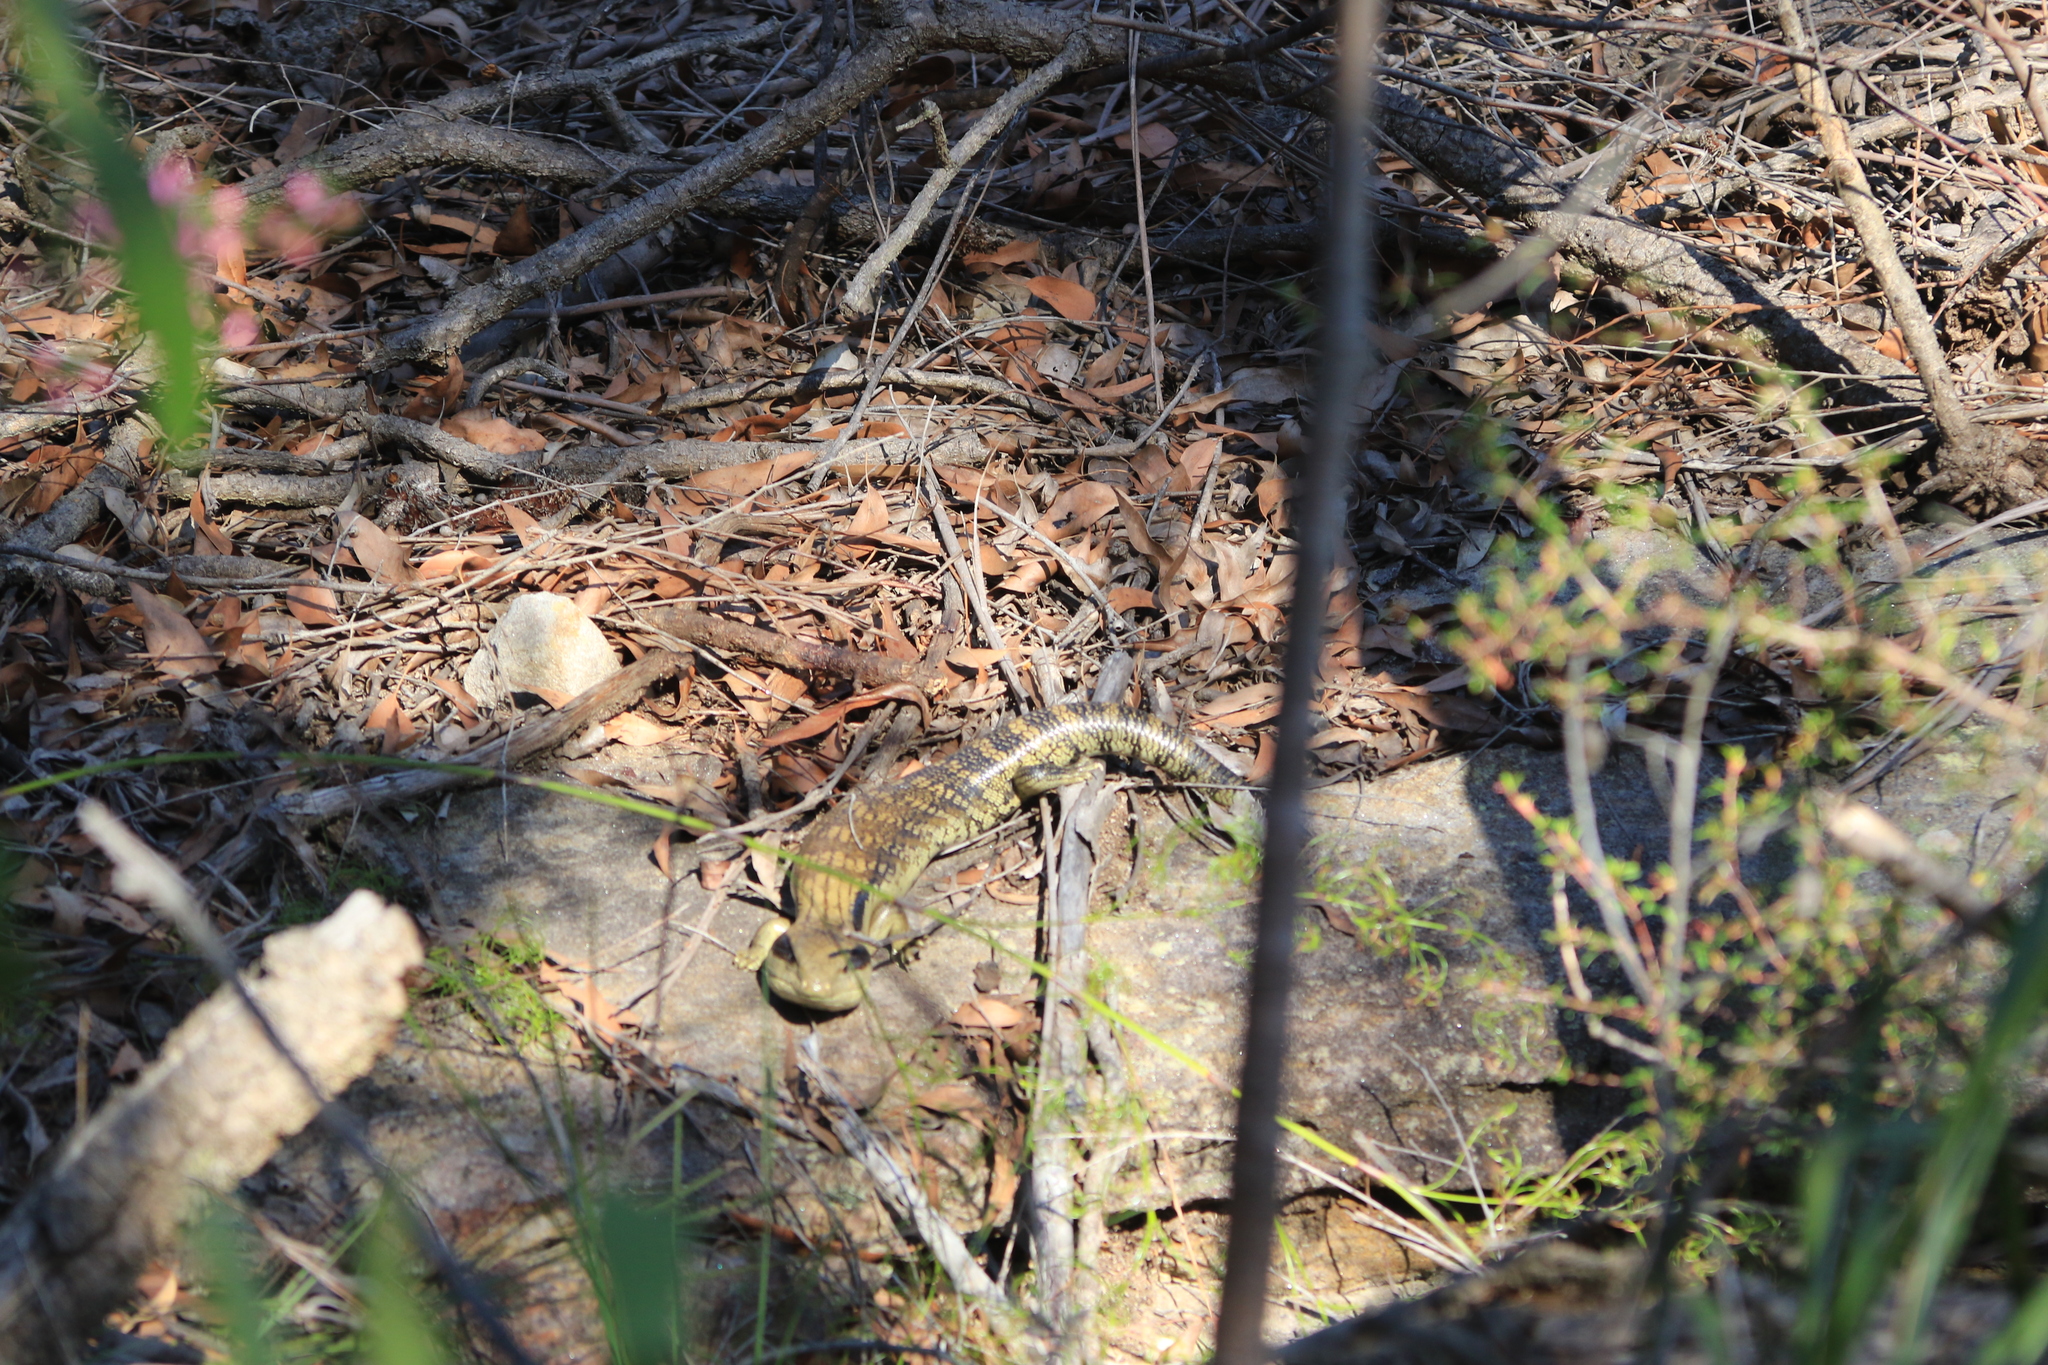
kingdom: Animalia
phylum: Chordata
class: Squamata
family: Scincidae
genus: Tiliqua
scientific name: Tiliqua scincoides
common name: Common bluetongue
